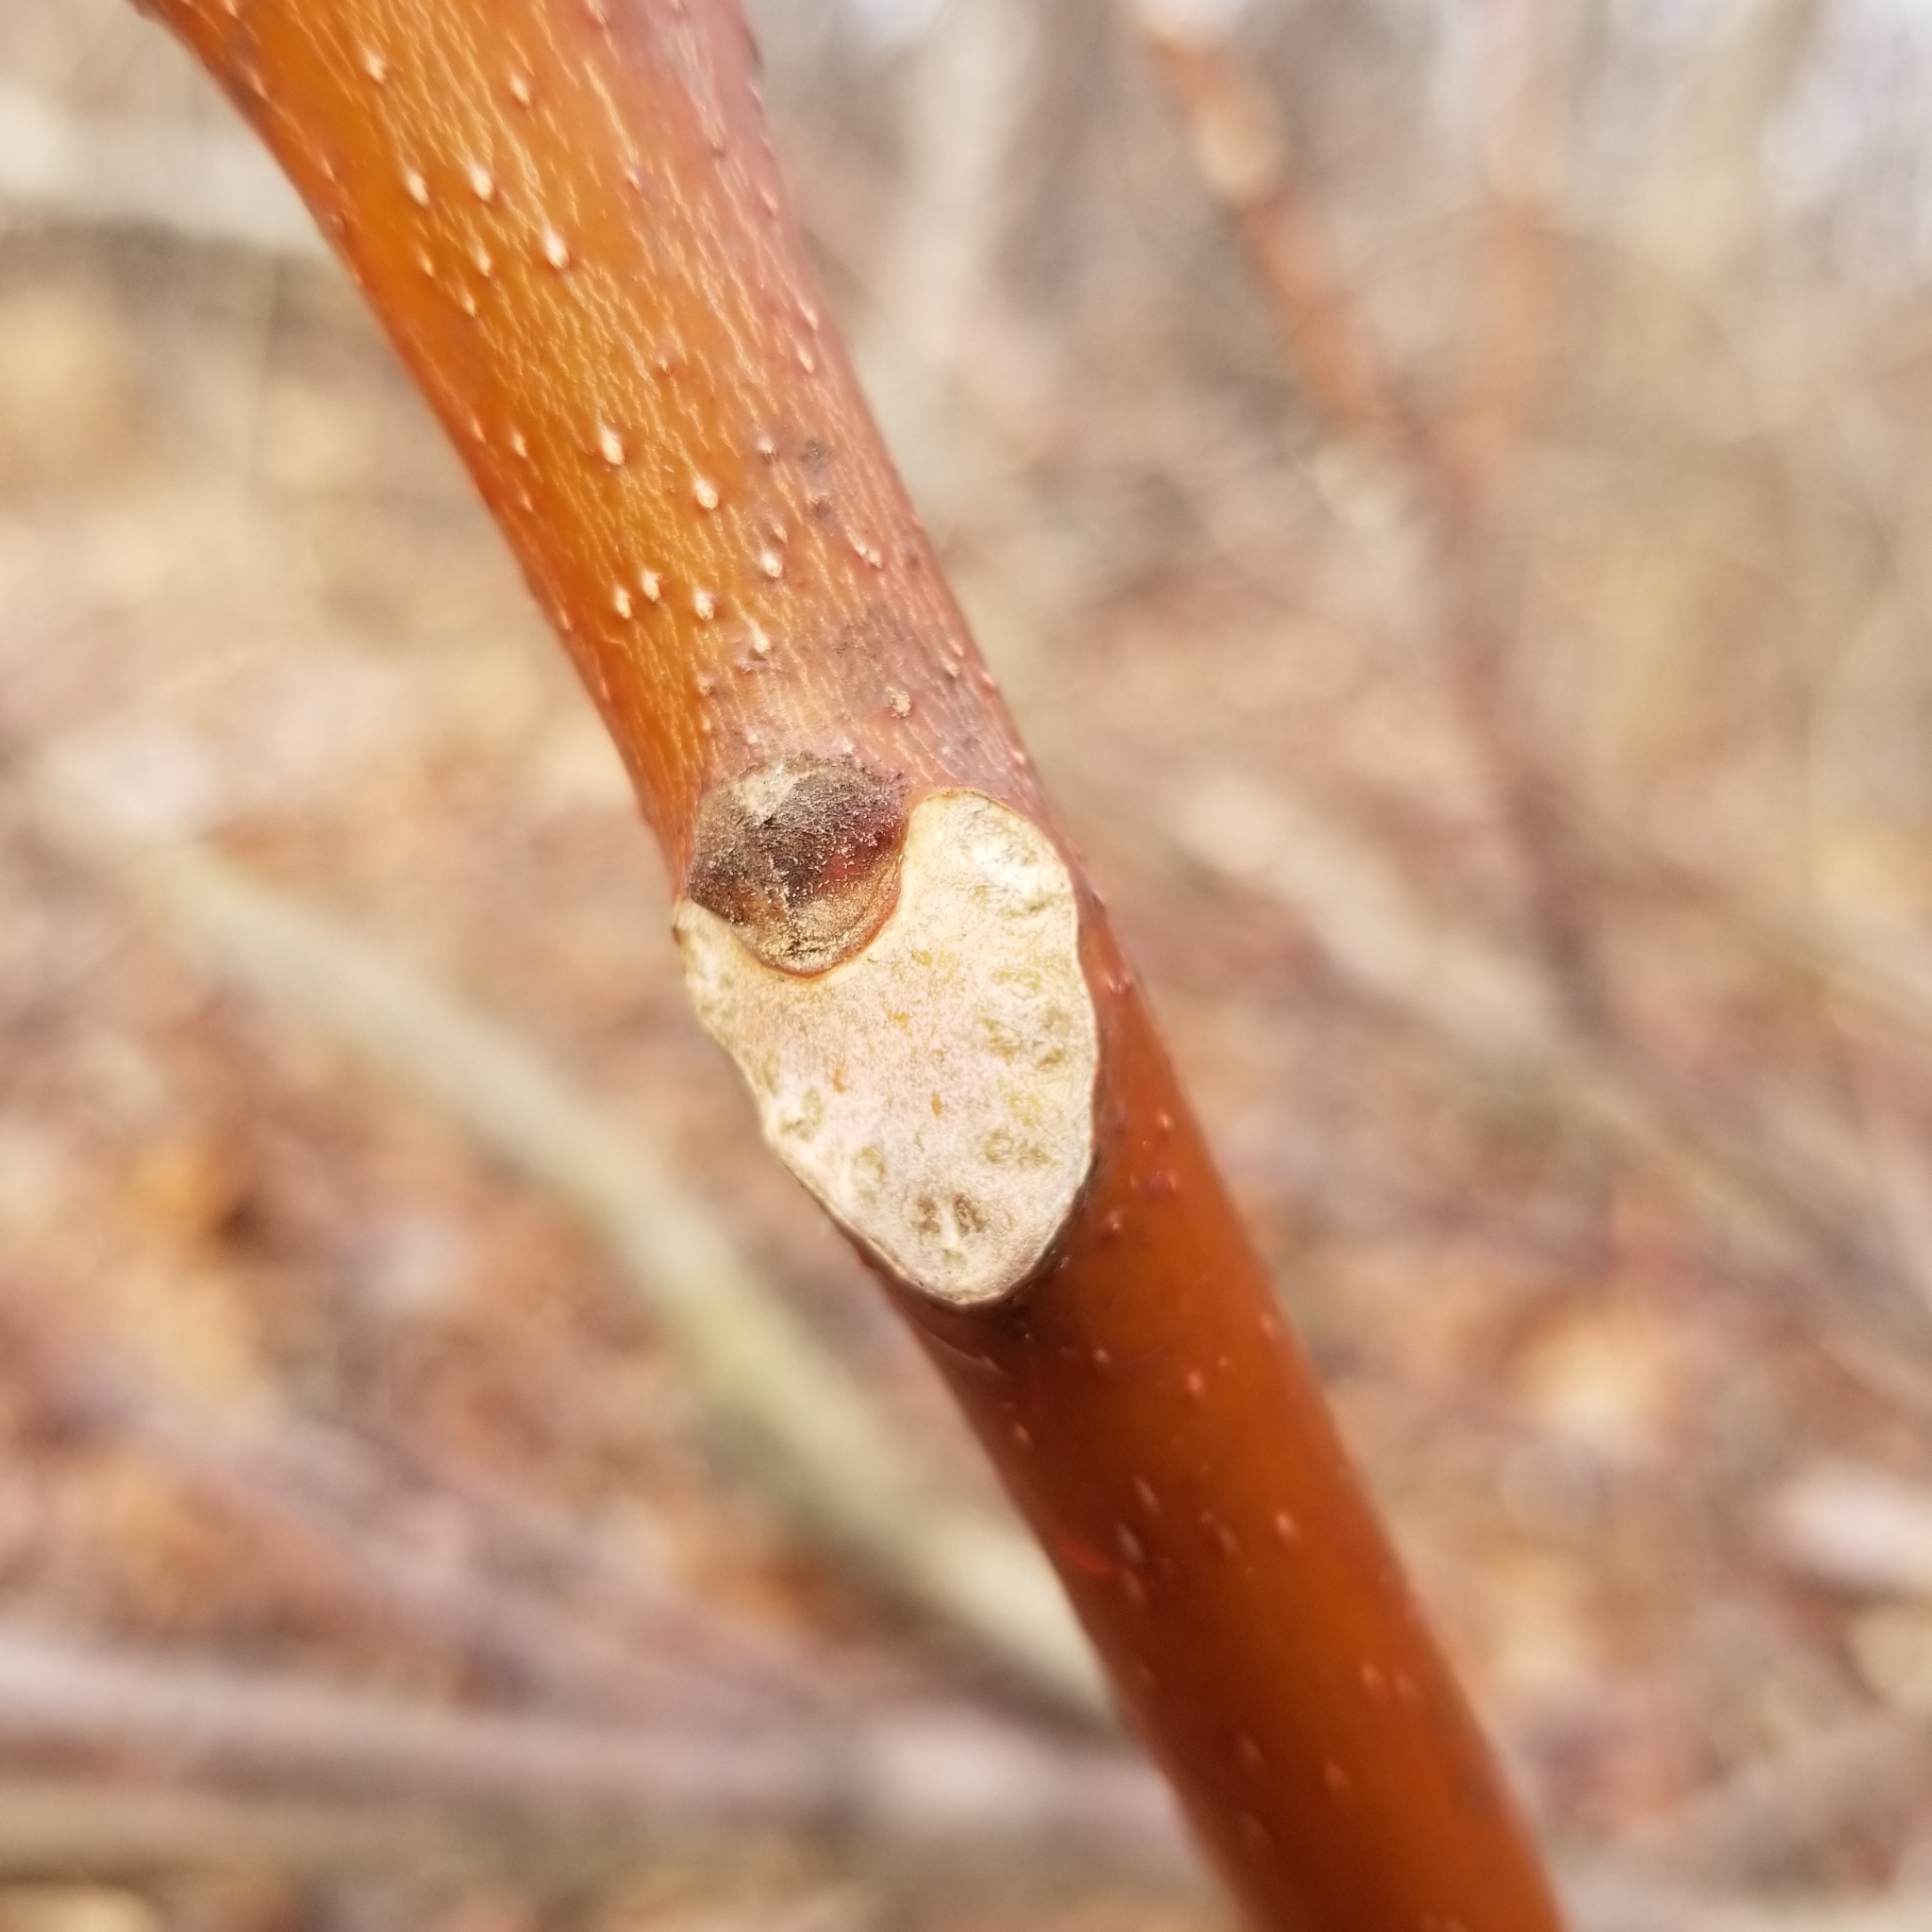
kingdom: Plantae
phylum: Tracheophyta
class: Magnoliopsida
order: Sapindales
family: Simaroubaceae
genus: Ailanthus
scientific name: Ailanthus altissima
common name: Tree-of-heaven
